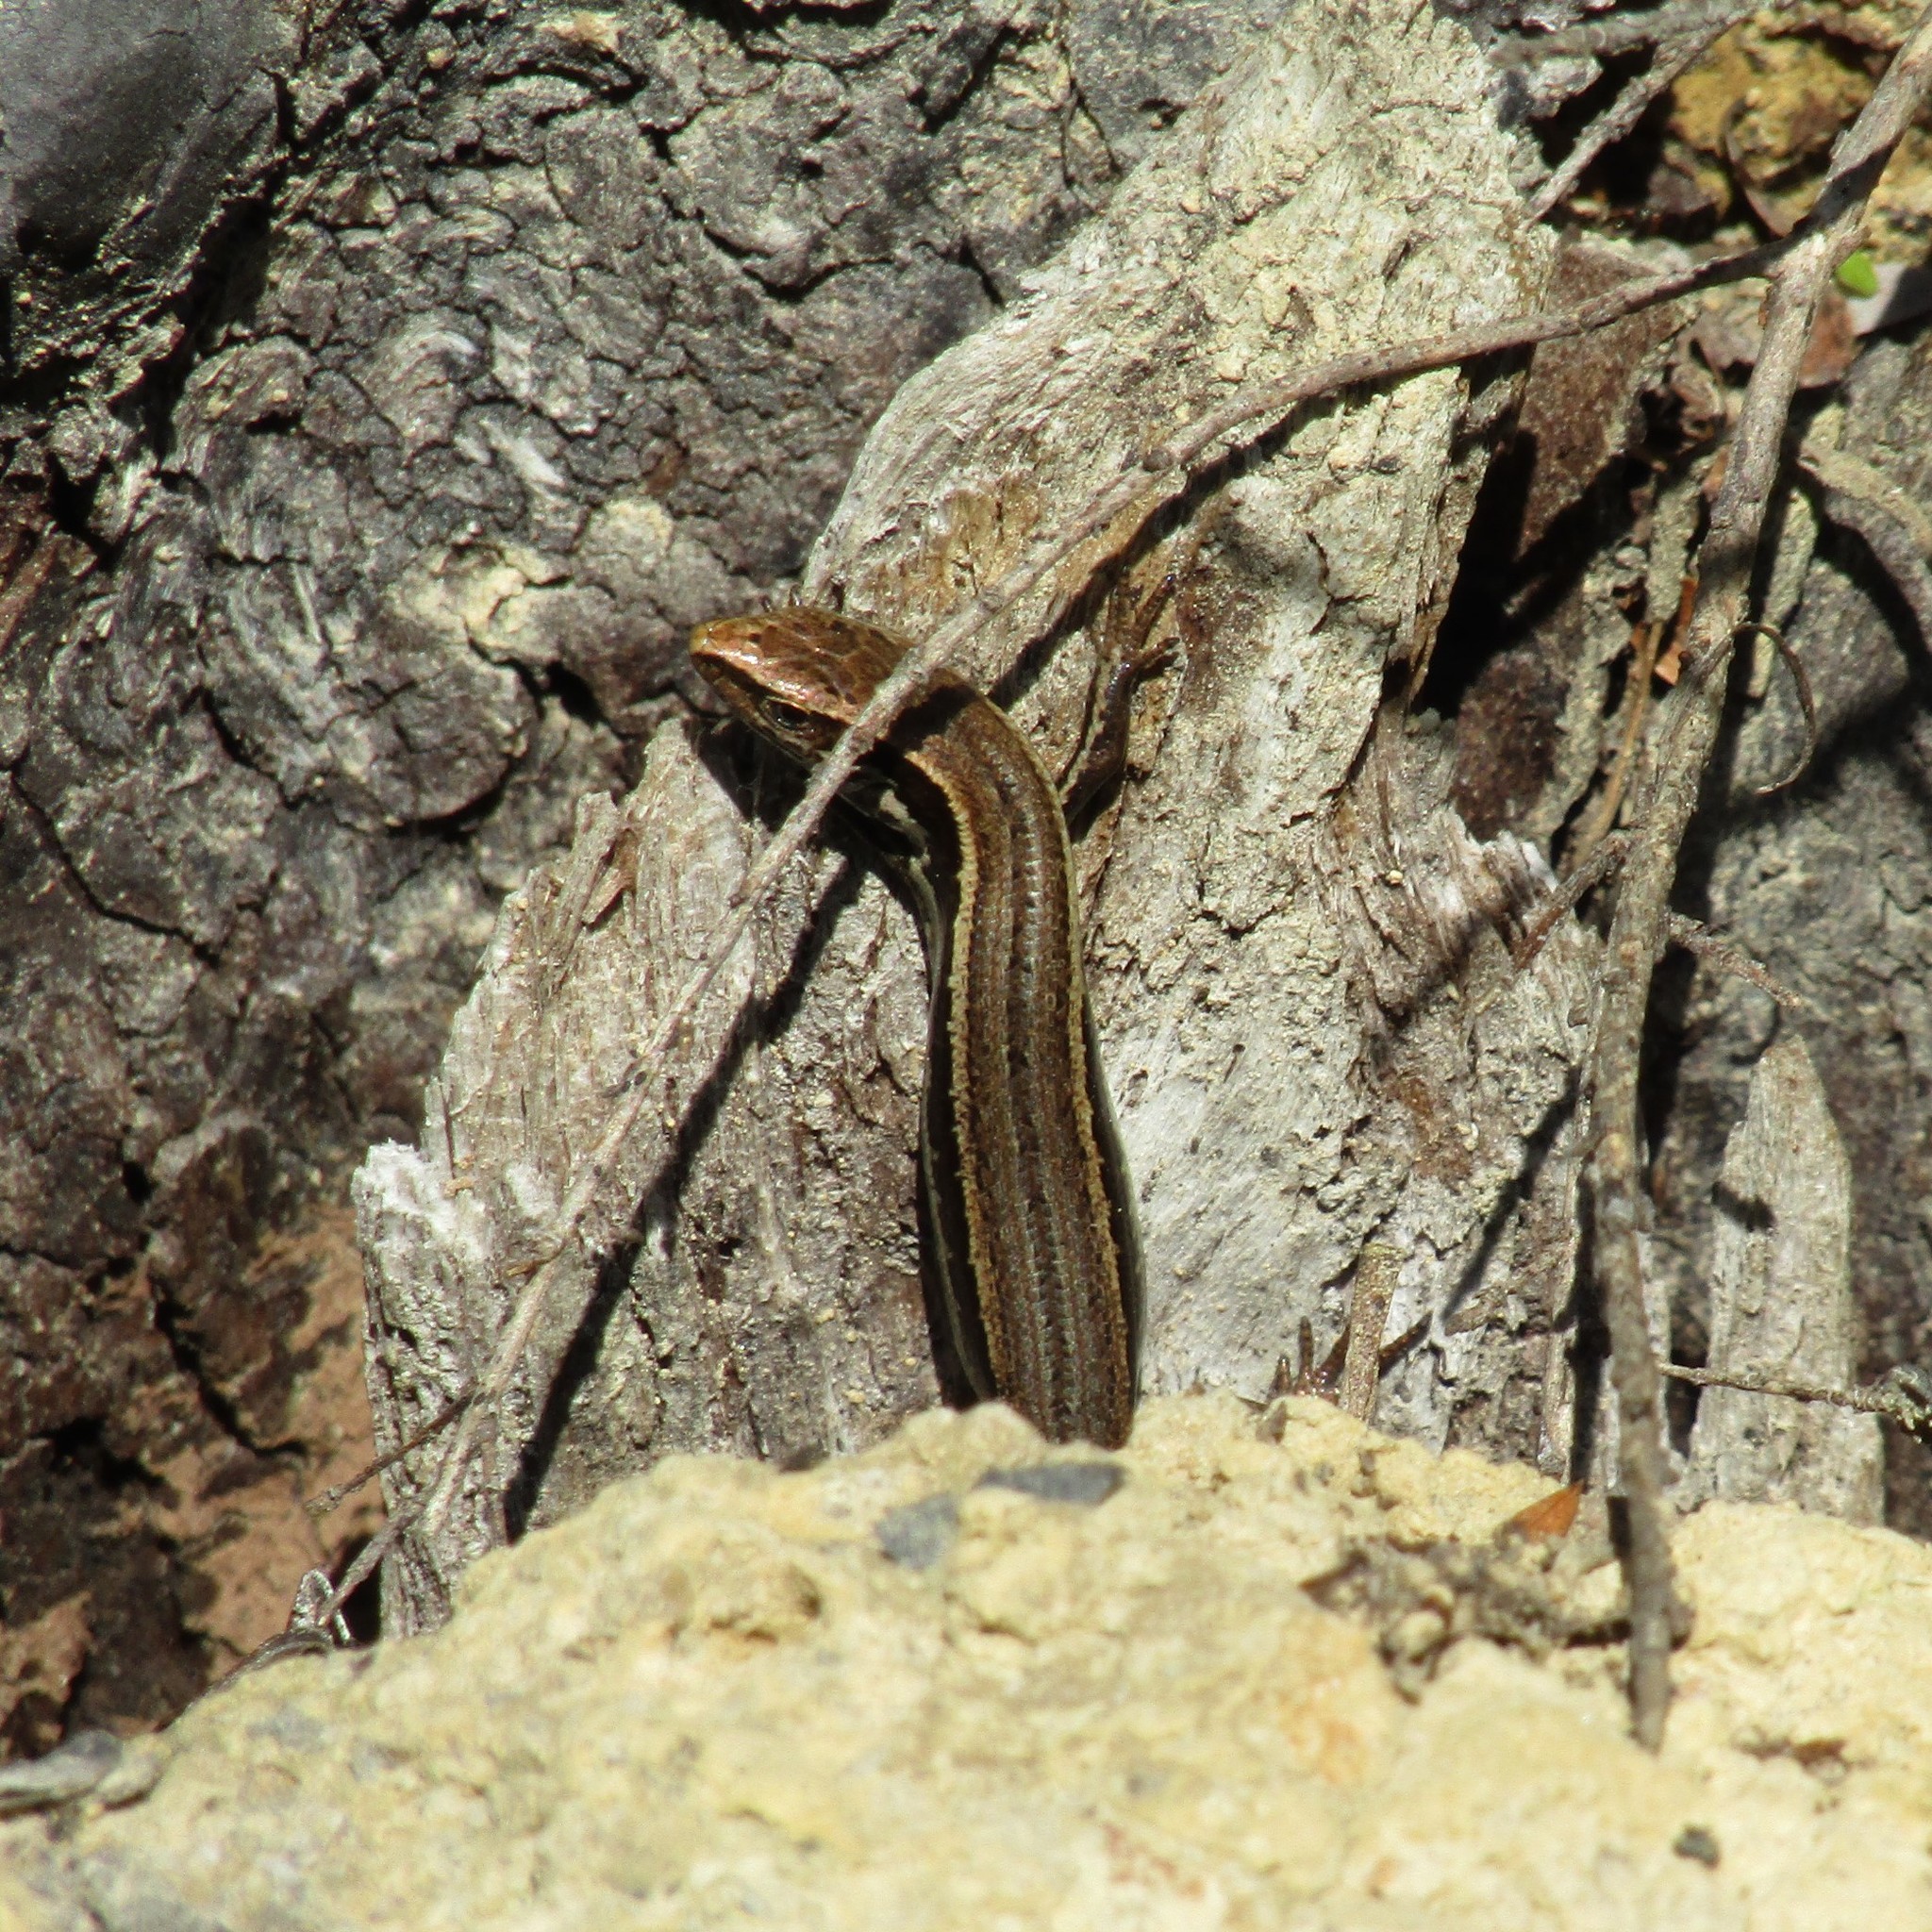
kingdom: Animalia
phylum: Chordata
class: Squamata
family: Scincidae
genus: Oligosoma
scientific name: Oligosoma polychroma
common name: Common new zealand skink
